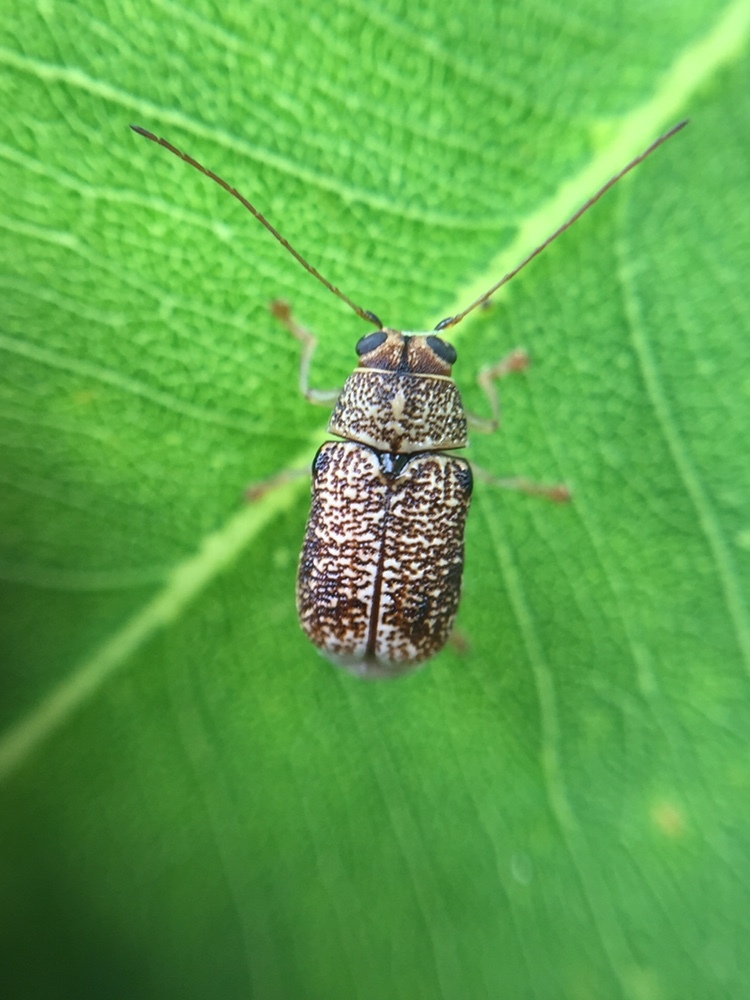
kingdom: Animalia
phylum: Arthropoda
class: Insecta
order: Coleoptera
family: Chrysomelidae
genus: Aporocera
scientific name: Aporocera
